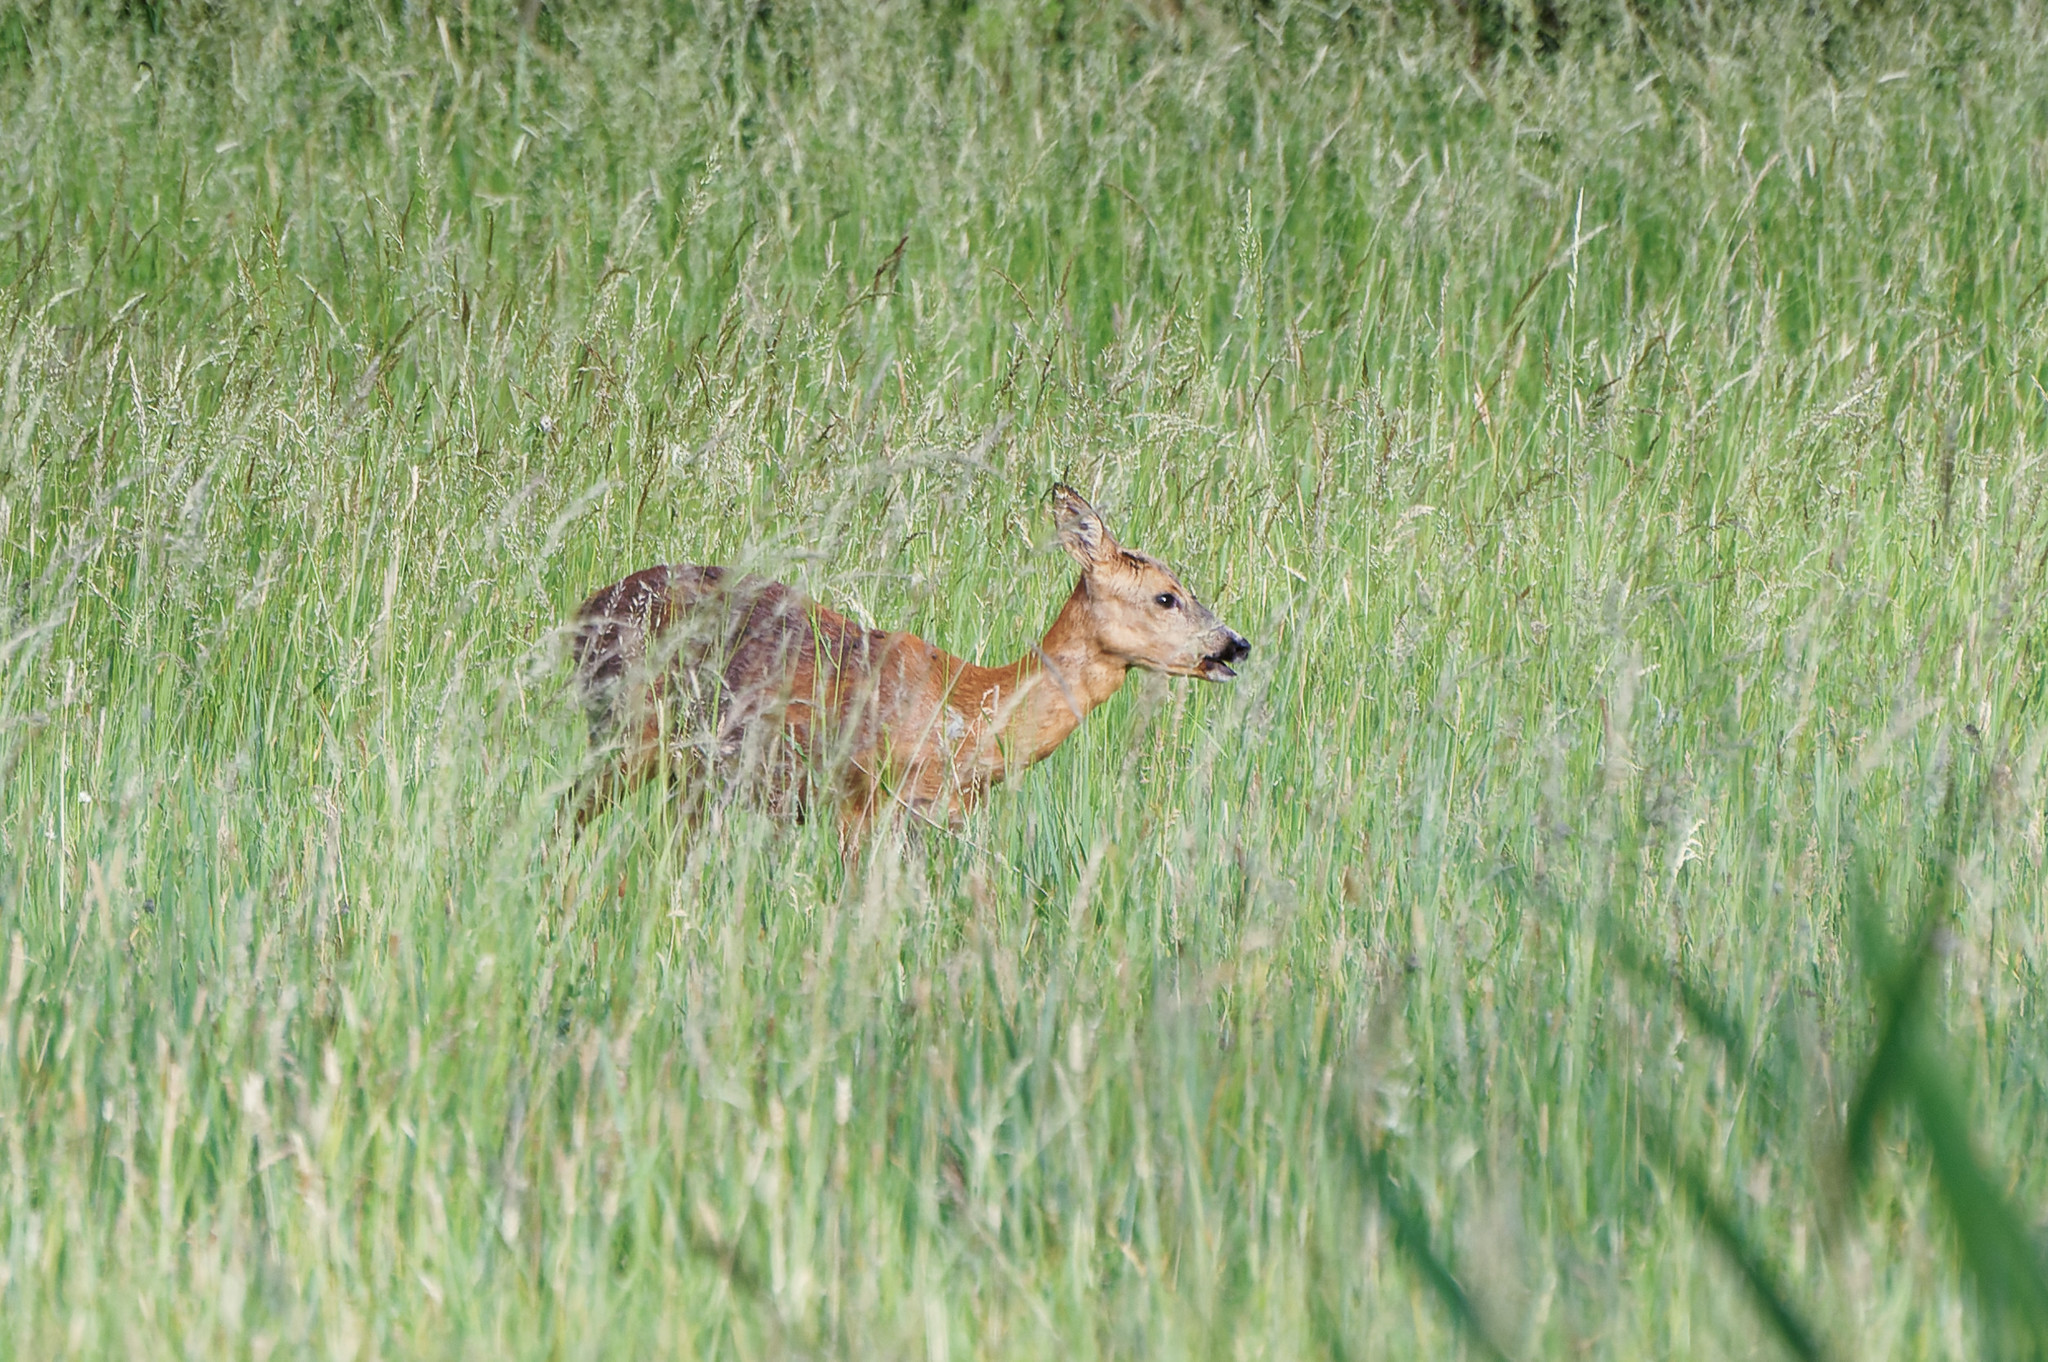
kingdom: Animalia
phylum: Chordata
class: Mammalia
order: Artiodactyla
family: Cervidae
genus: Capreolus
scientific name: Capreolus capreolus
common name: Western roe deer
